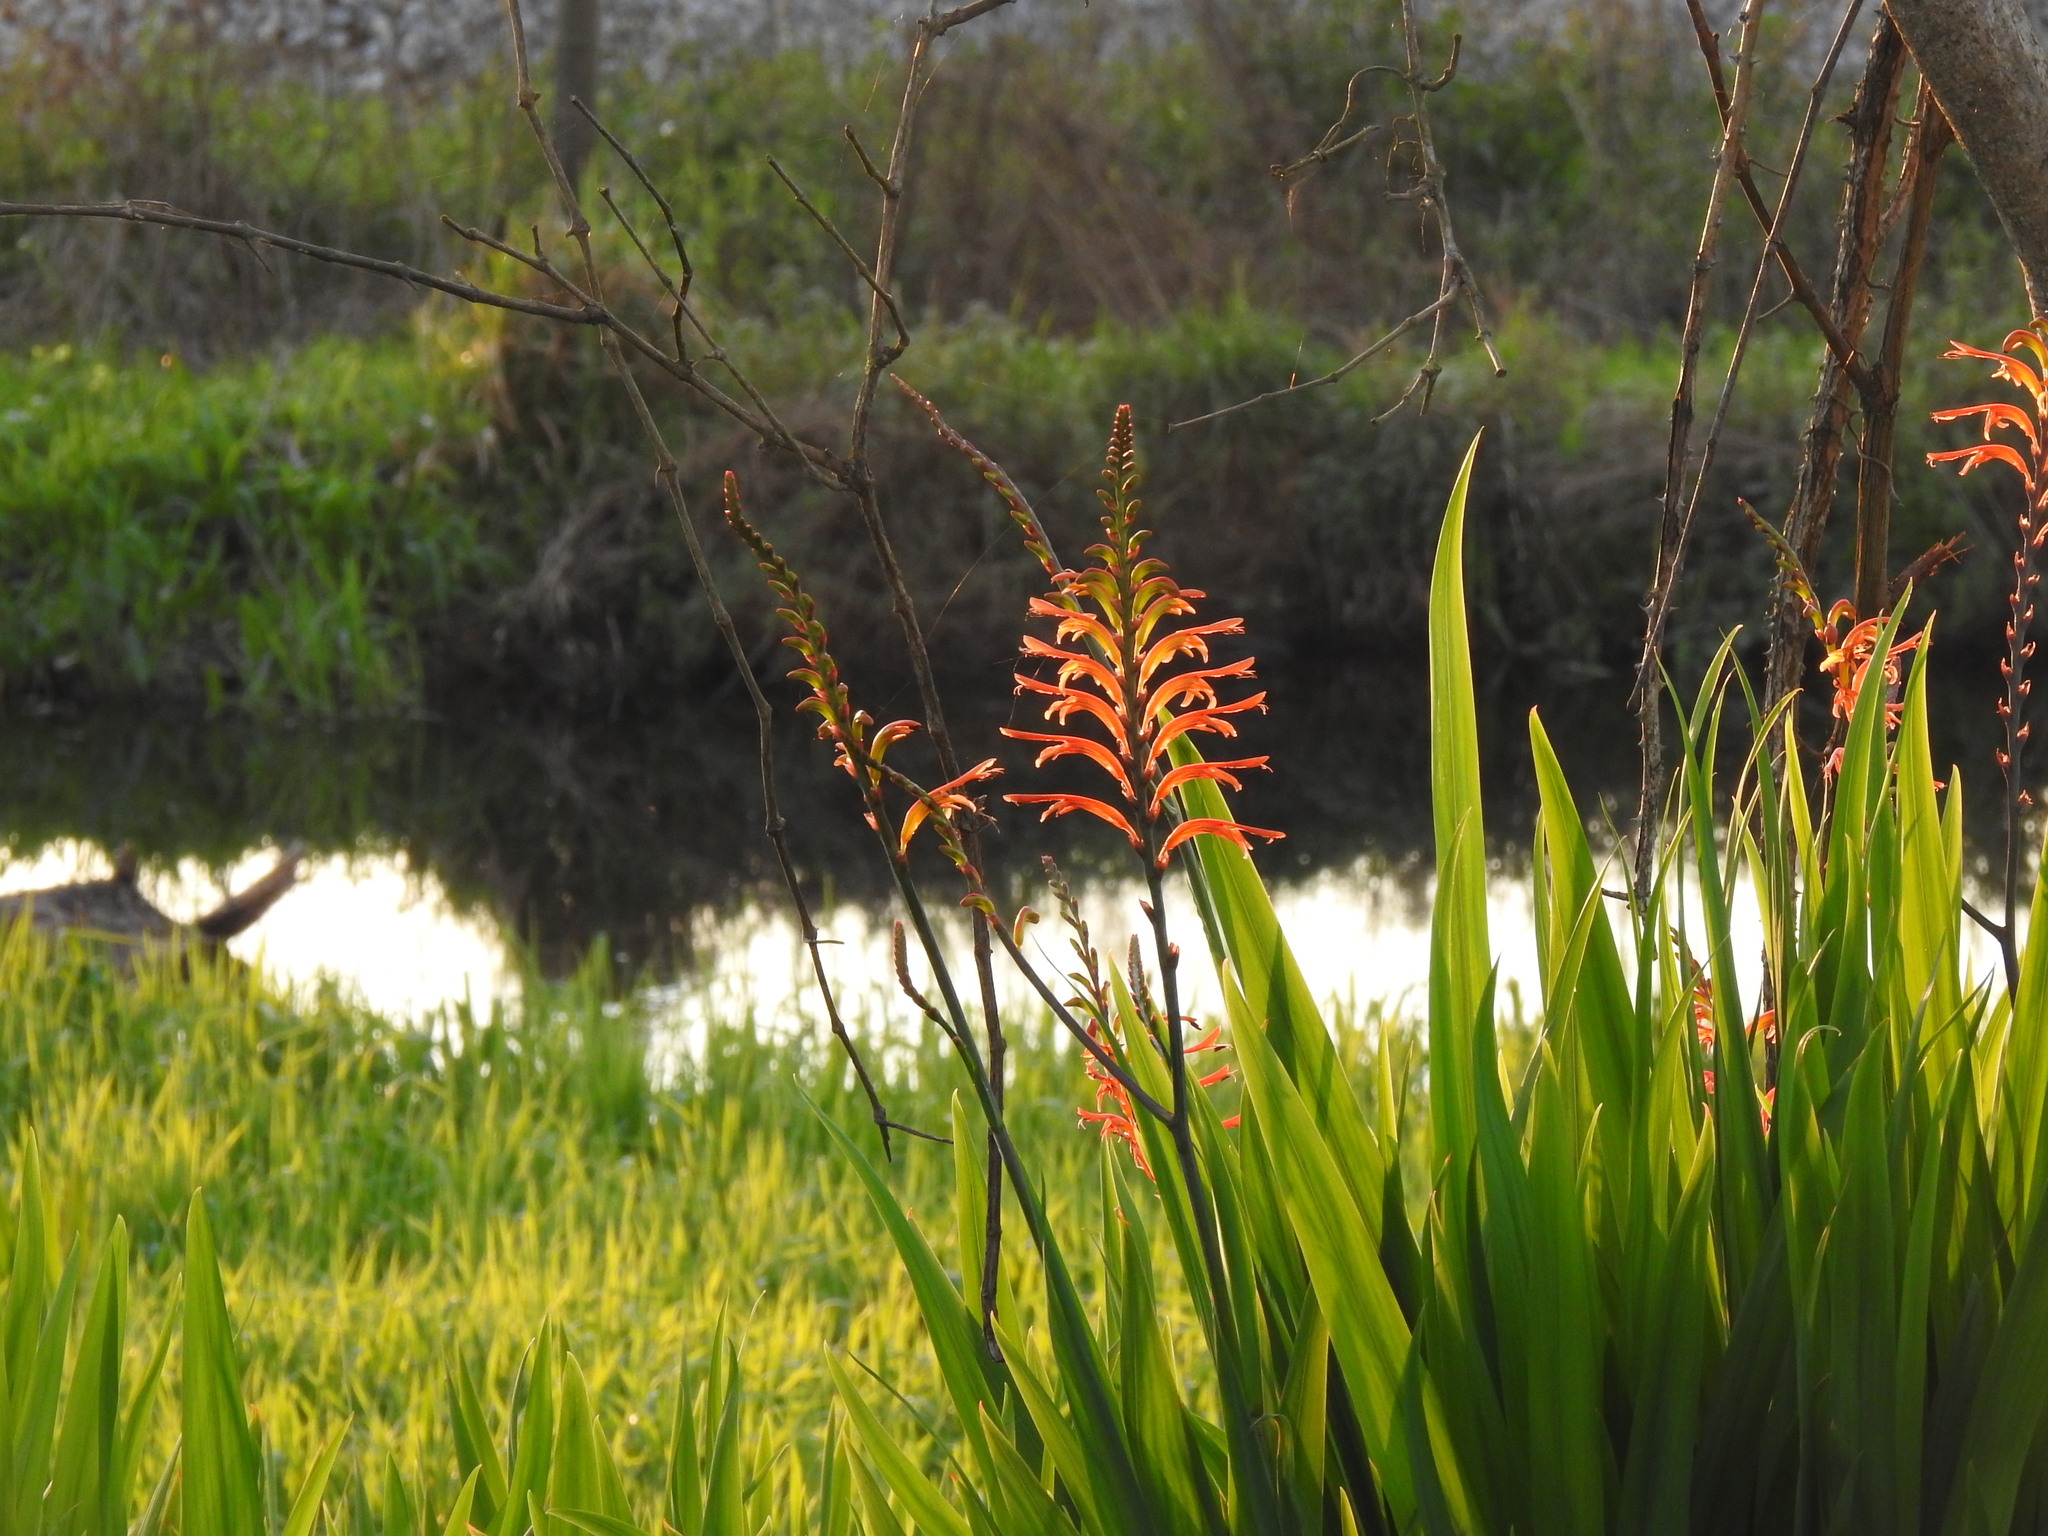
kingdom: Plantae
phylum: Tracheophyta
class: Liliopsida
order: Asparagales
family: Iridaceae
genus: Chasmanthe
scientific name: Chasmanthe floribunda
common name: African cornflag
